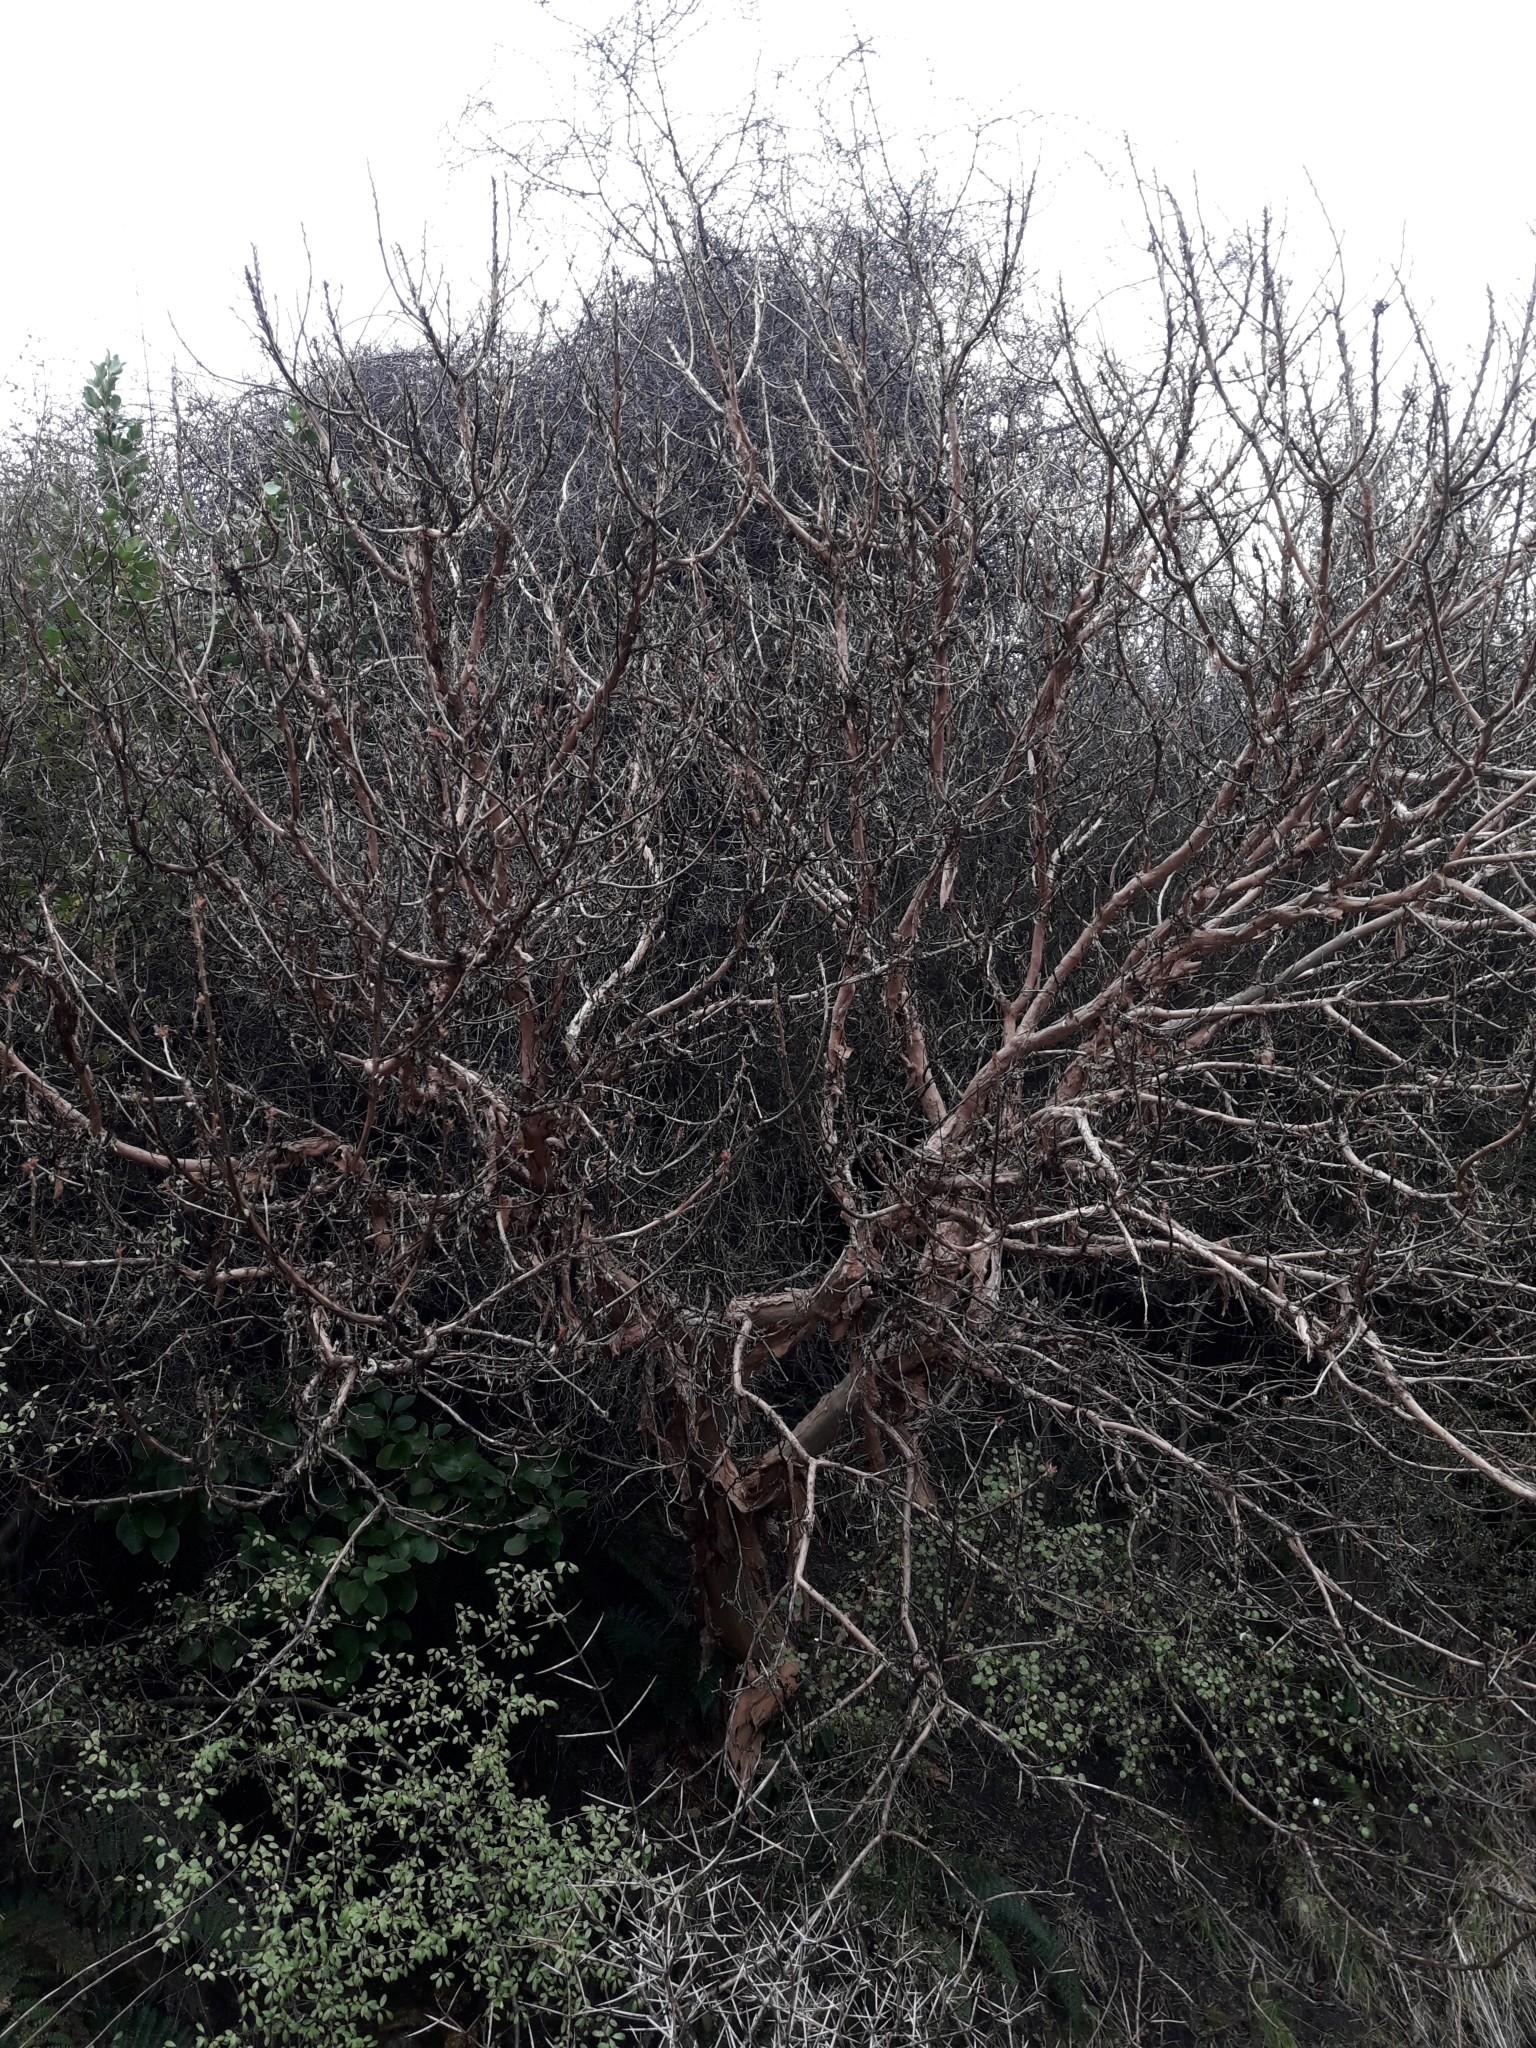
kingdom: Plantae
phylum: Tracheophyta
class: Magnoliopsida
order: Myrtales
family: Onagraceae
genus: Fuchsia
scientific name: Fuchsia excorticata
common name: Tree fuchsia
